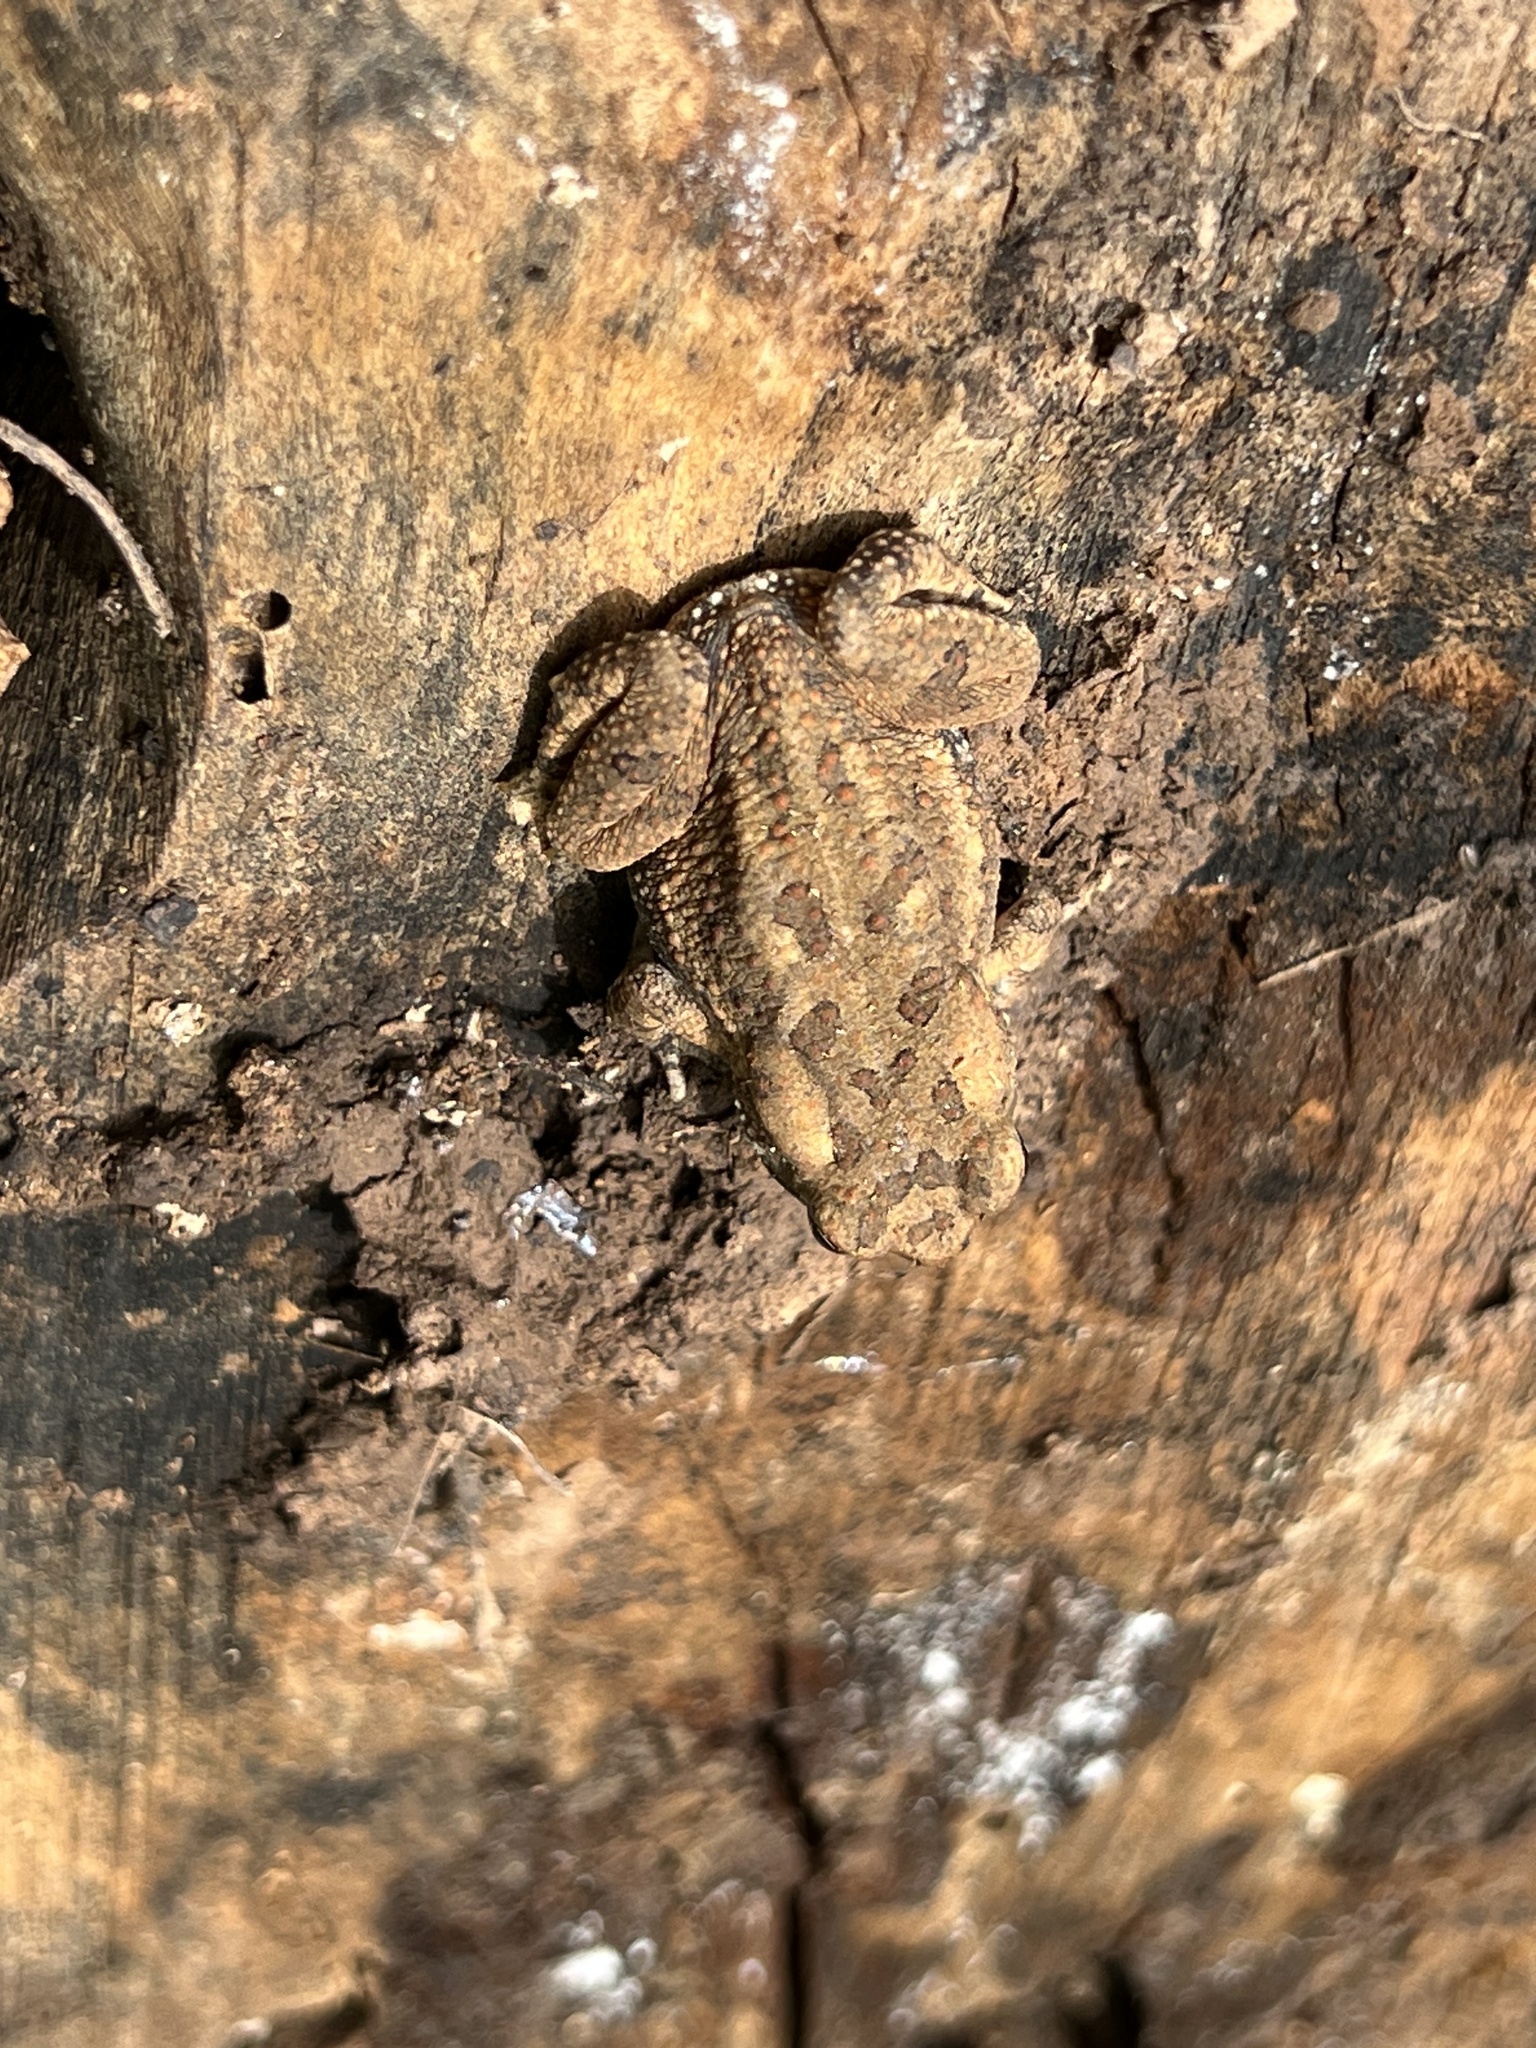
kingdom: Animalia
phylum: Chordata
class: Amphibia
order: Anura
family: Bufonidae
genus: Anaxyrus
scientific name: Anaxyrus fowleri
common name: Fowler's toad
